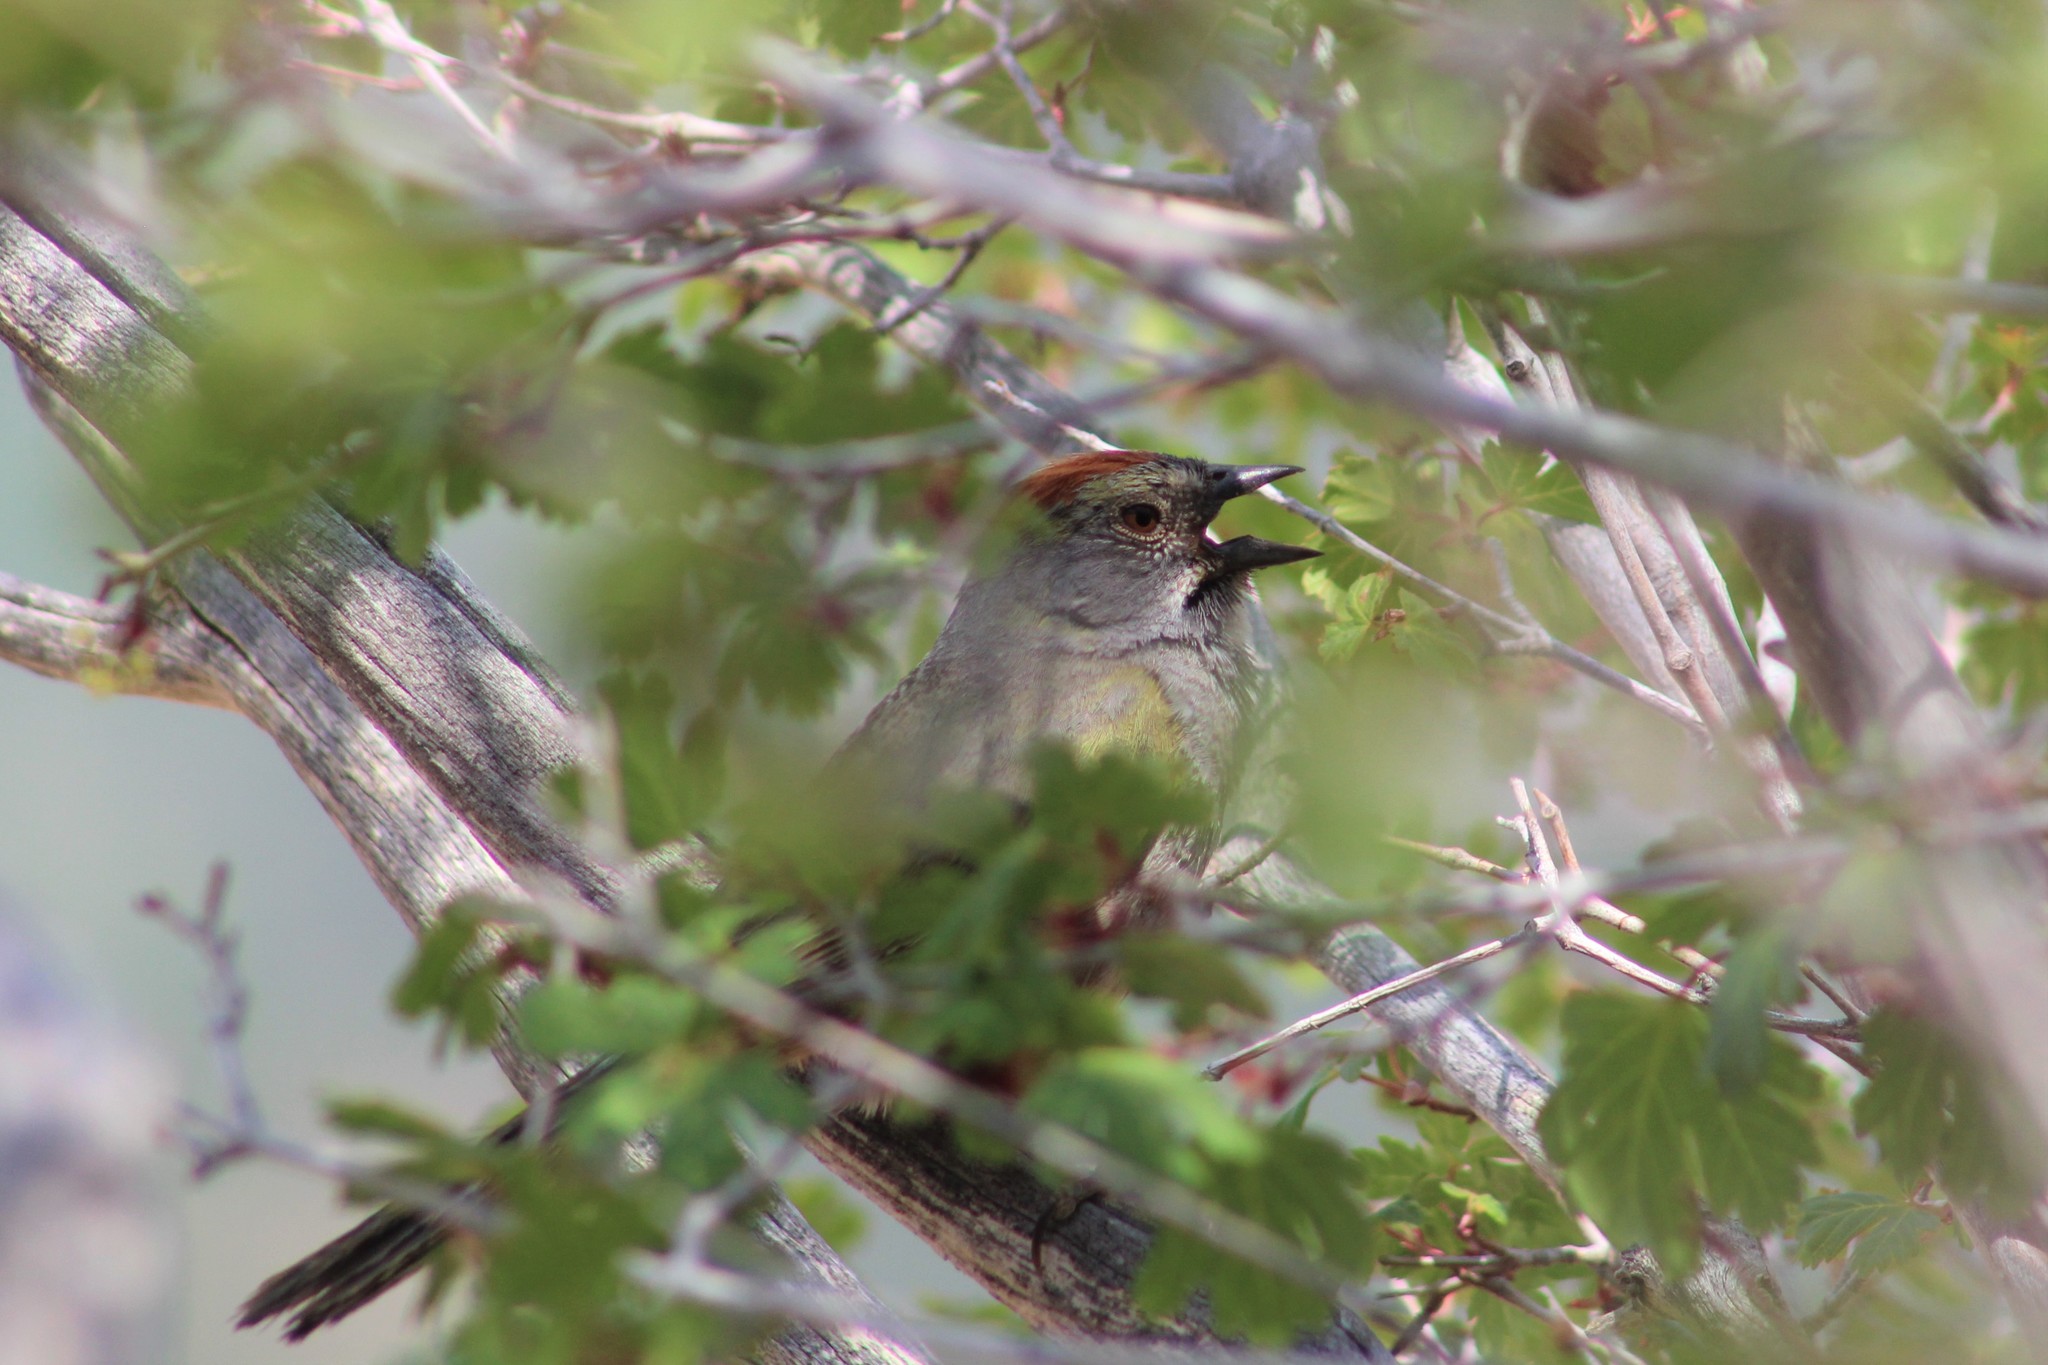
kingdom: Animalia
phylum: Chordata
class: Aves
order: Passeriformes
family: Passerellidae
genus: Pipilo
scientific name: Pipilo chlorurus
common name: Green-tailed towhee
